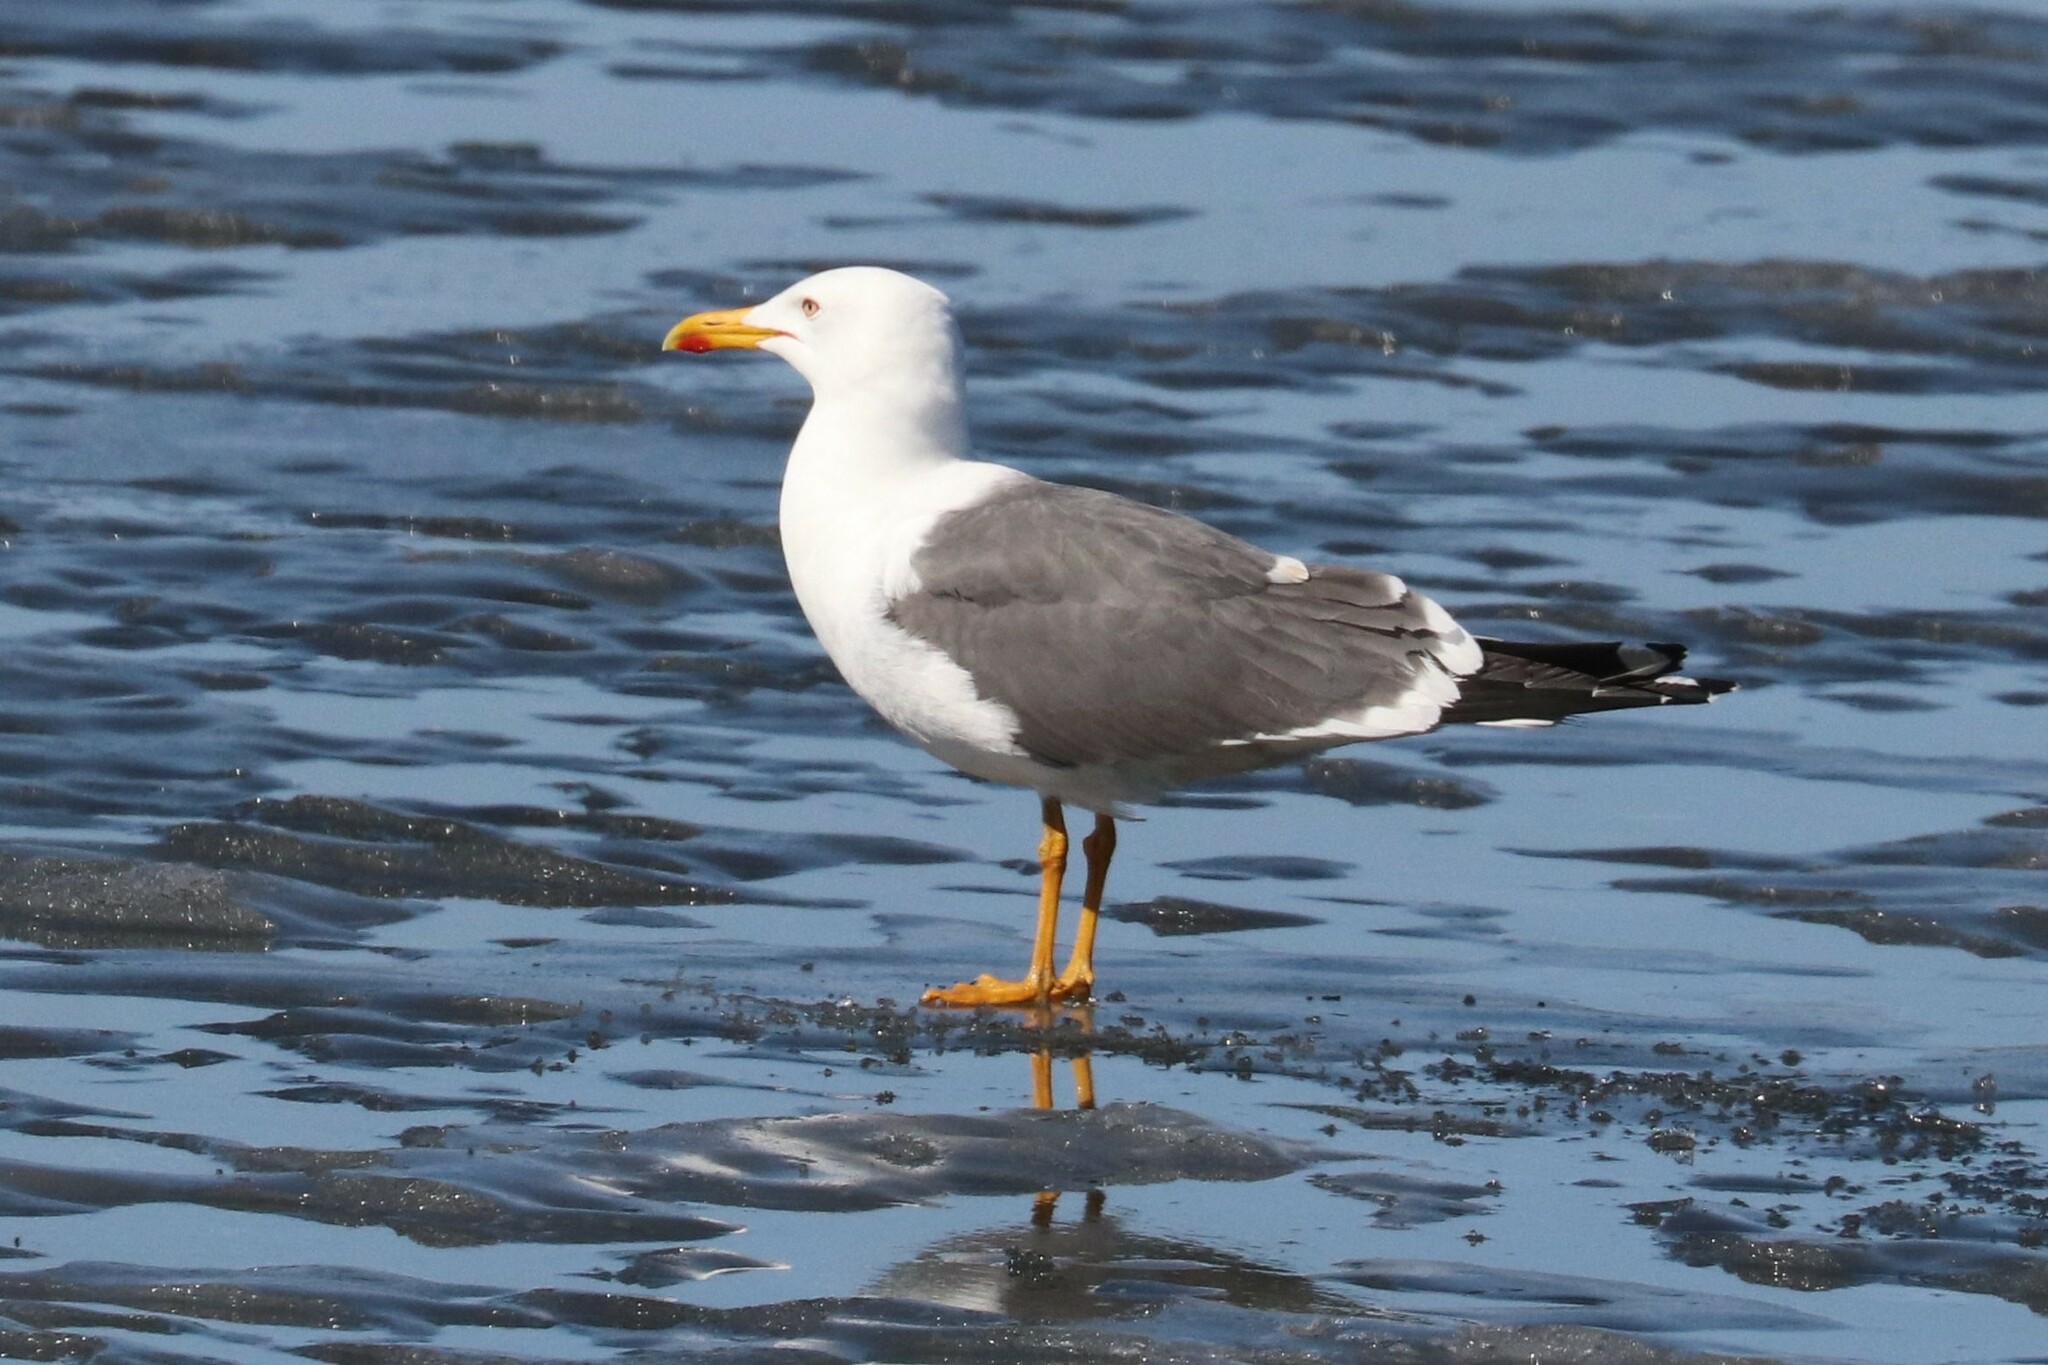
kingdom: Animalia
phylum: Chordata
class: Aves
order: Charadriiformes
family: Laridae
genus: Larus
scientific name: Larus fuscus
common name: Lesser black-backed gull
